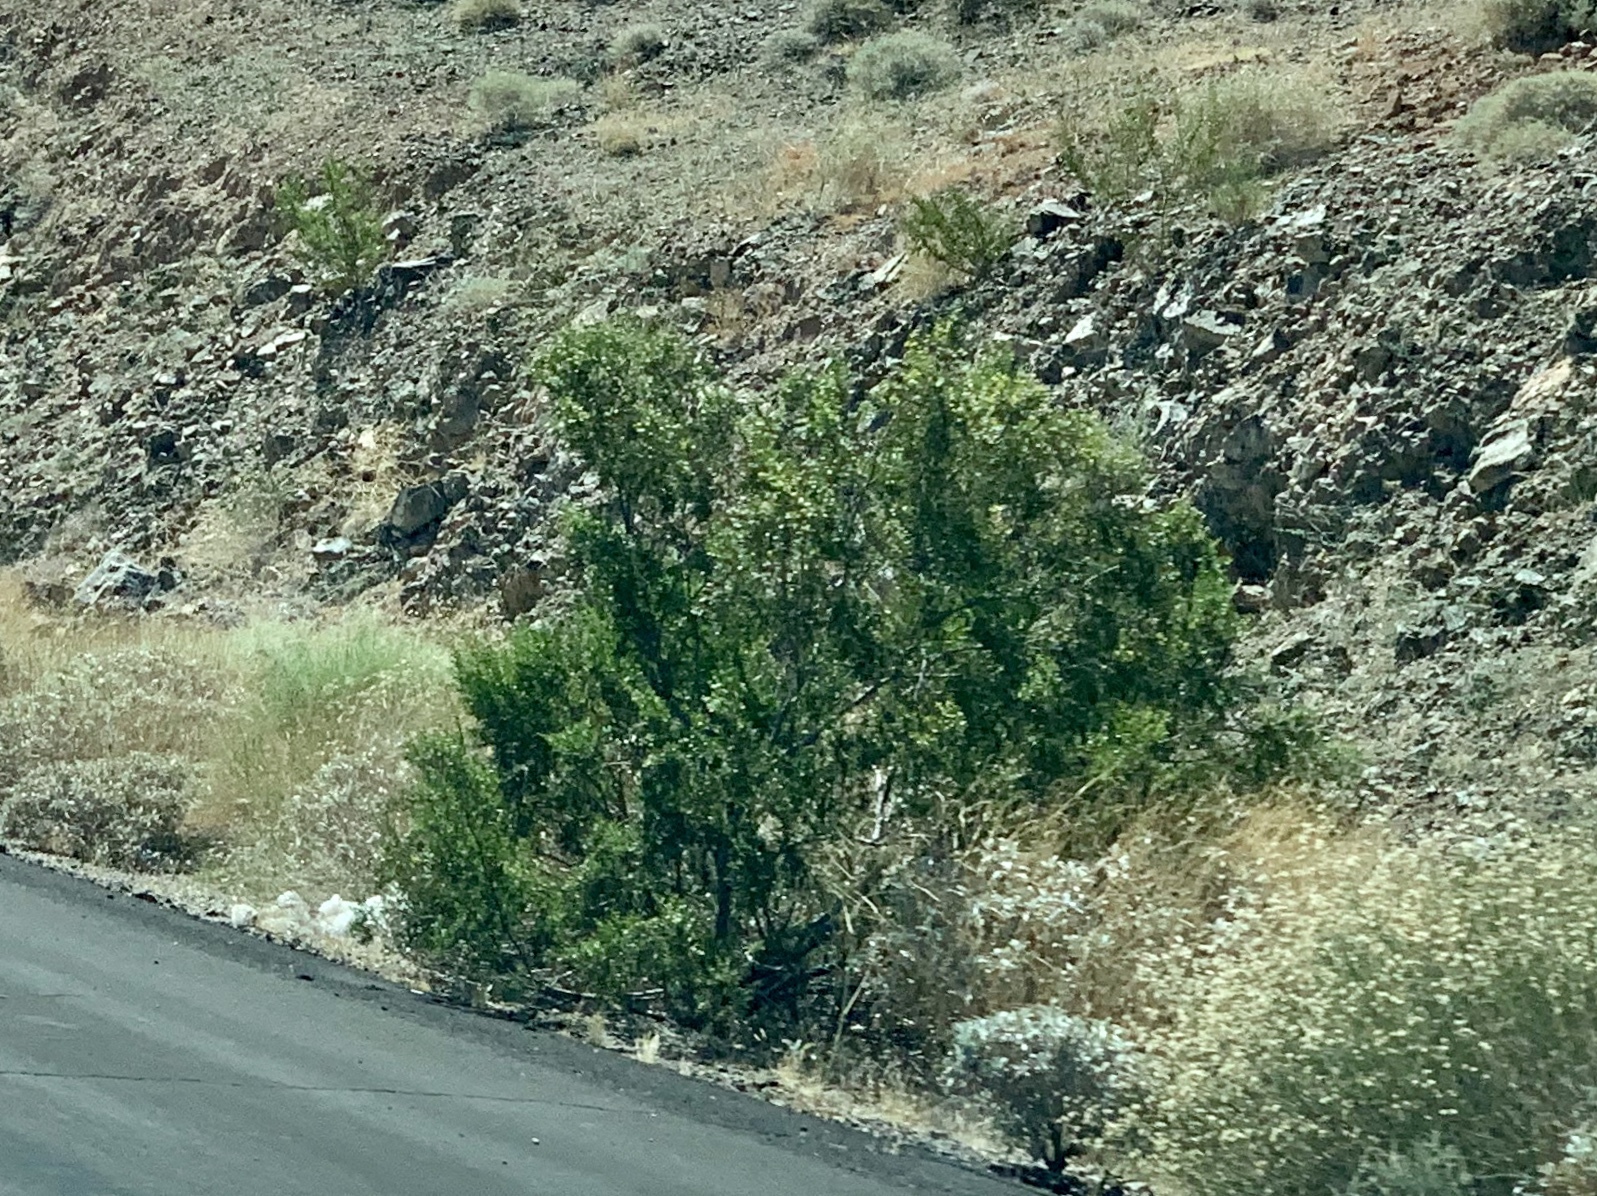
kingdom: Plantae
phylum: Tracheophyta
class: Magnoliopsida
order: Zygophyllales
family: Zygophyllaceae
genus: Larrea
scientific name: Larrea tridentata
